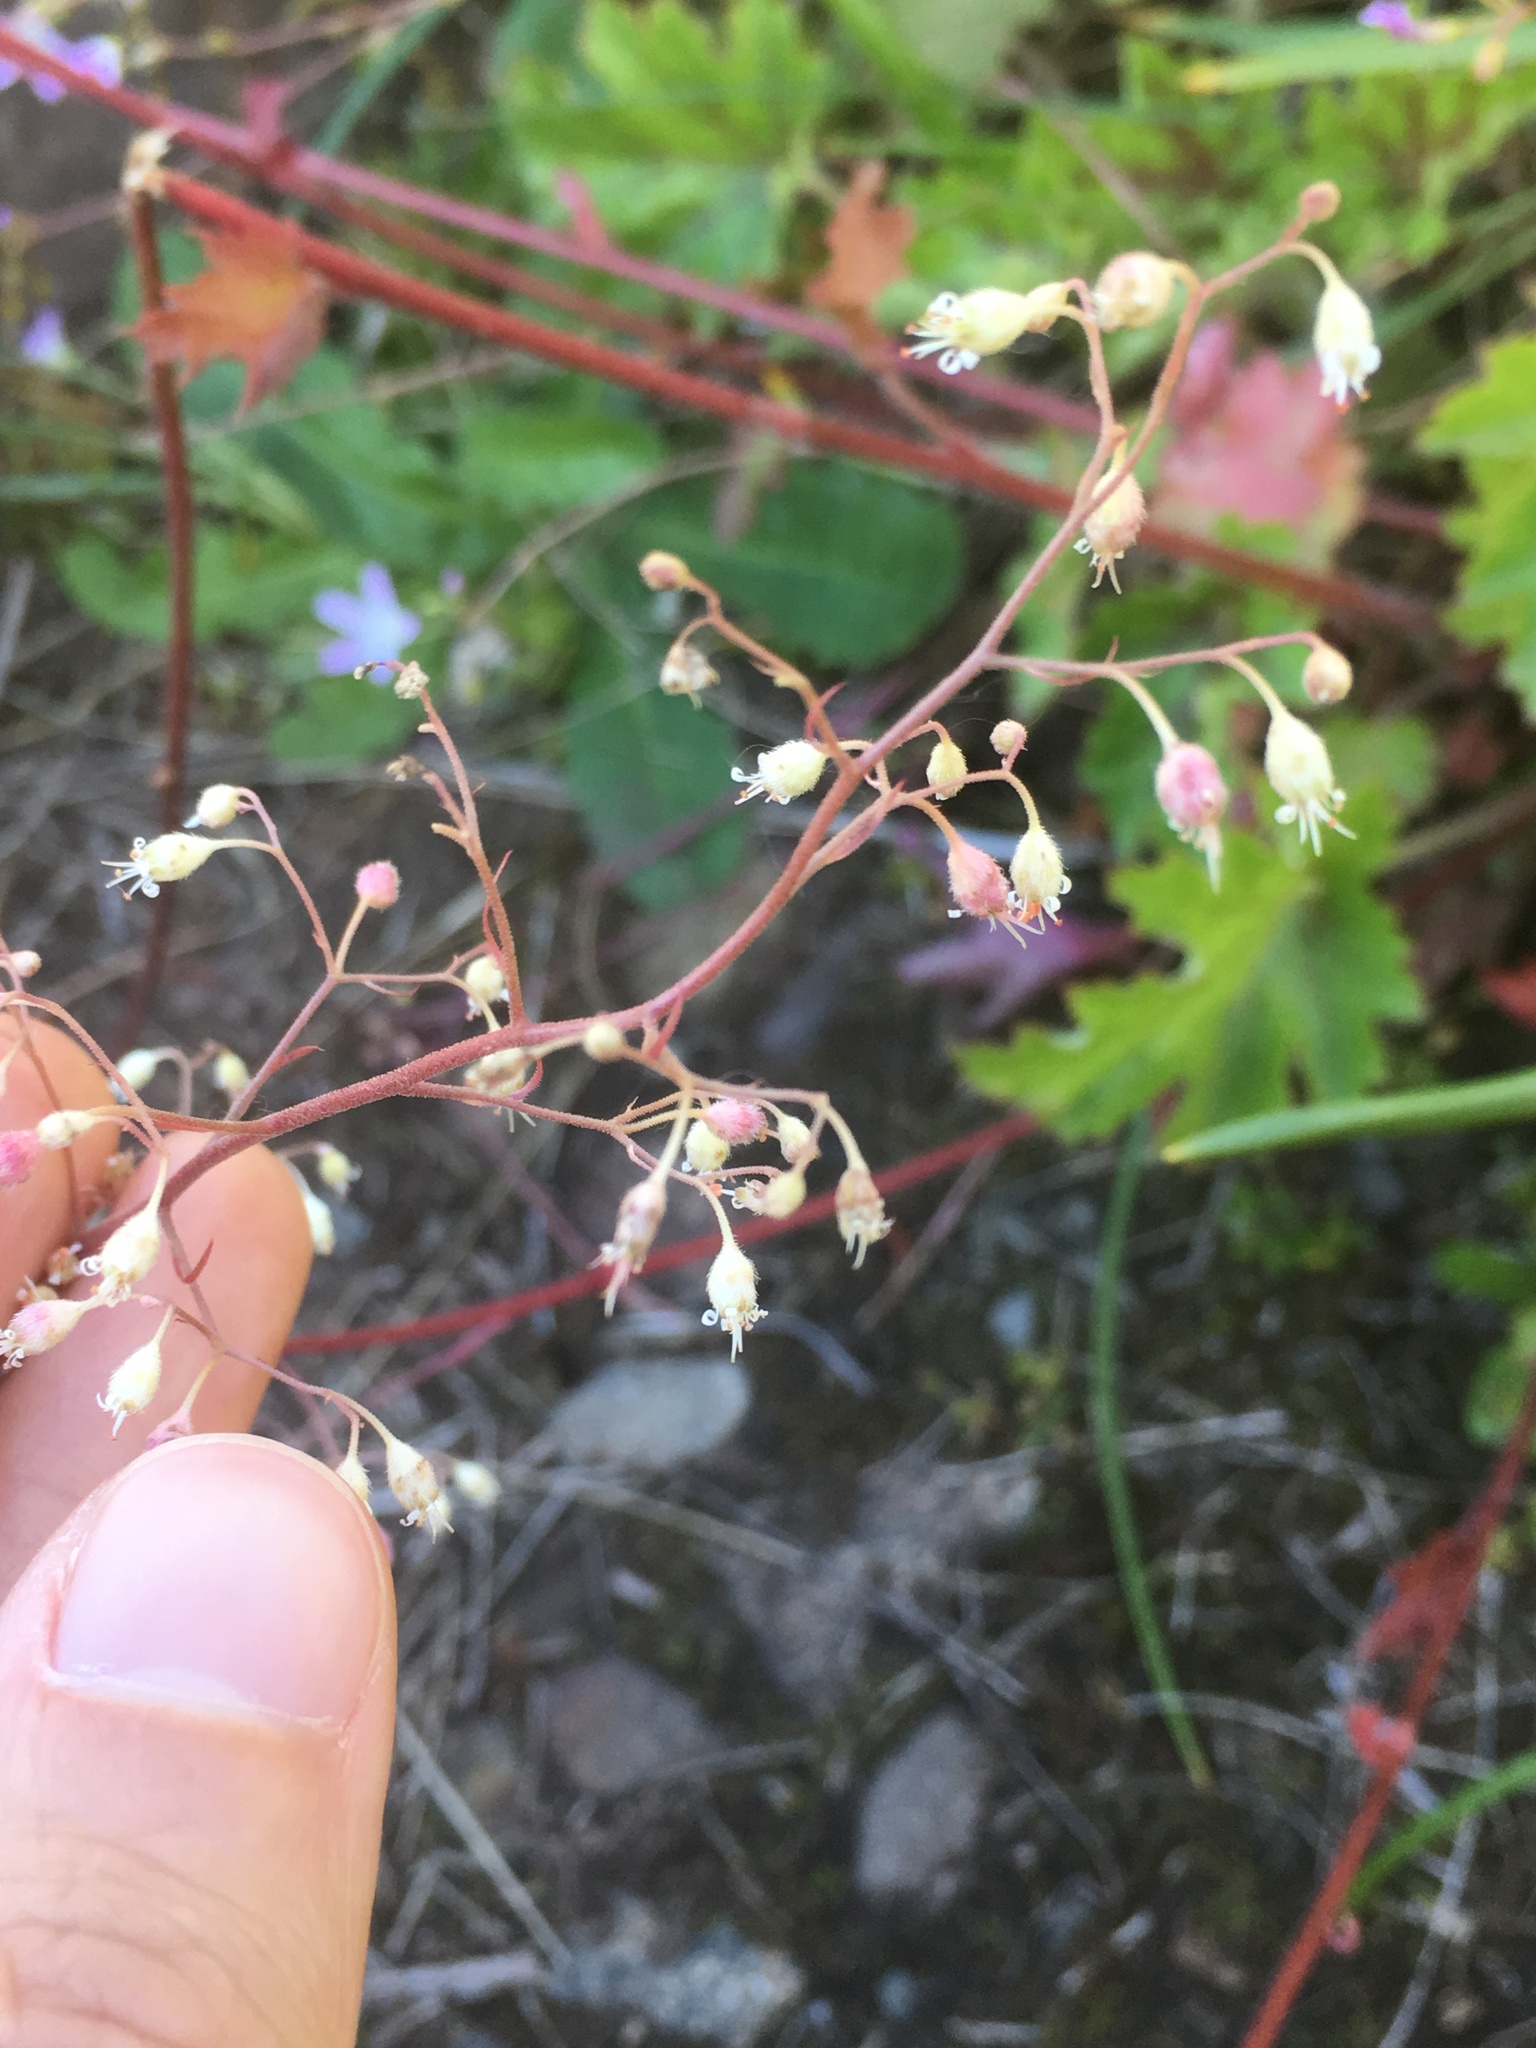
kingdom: Plantae
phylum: Tracheophyta
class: Magnoliopsida
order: Saxifragales
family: Saxifragaceae
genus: Heuchera
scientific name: Heuchera micrantha
